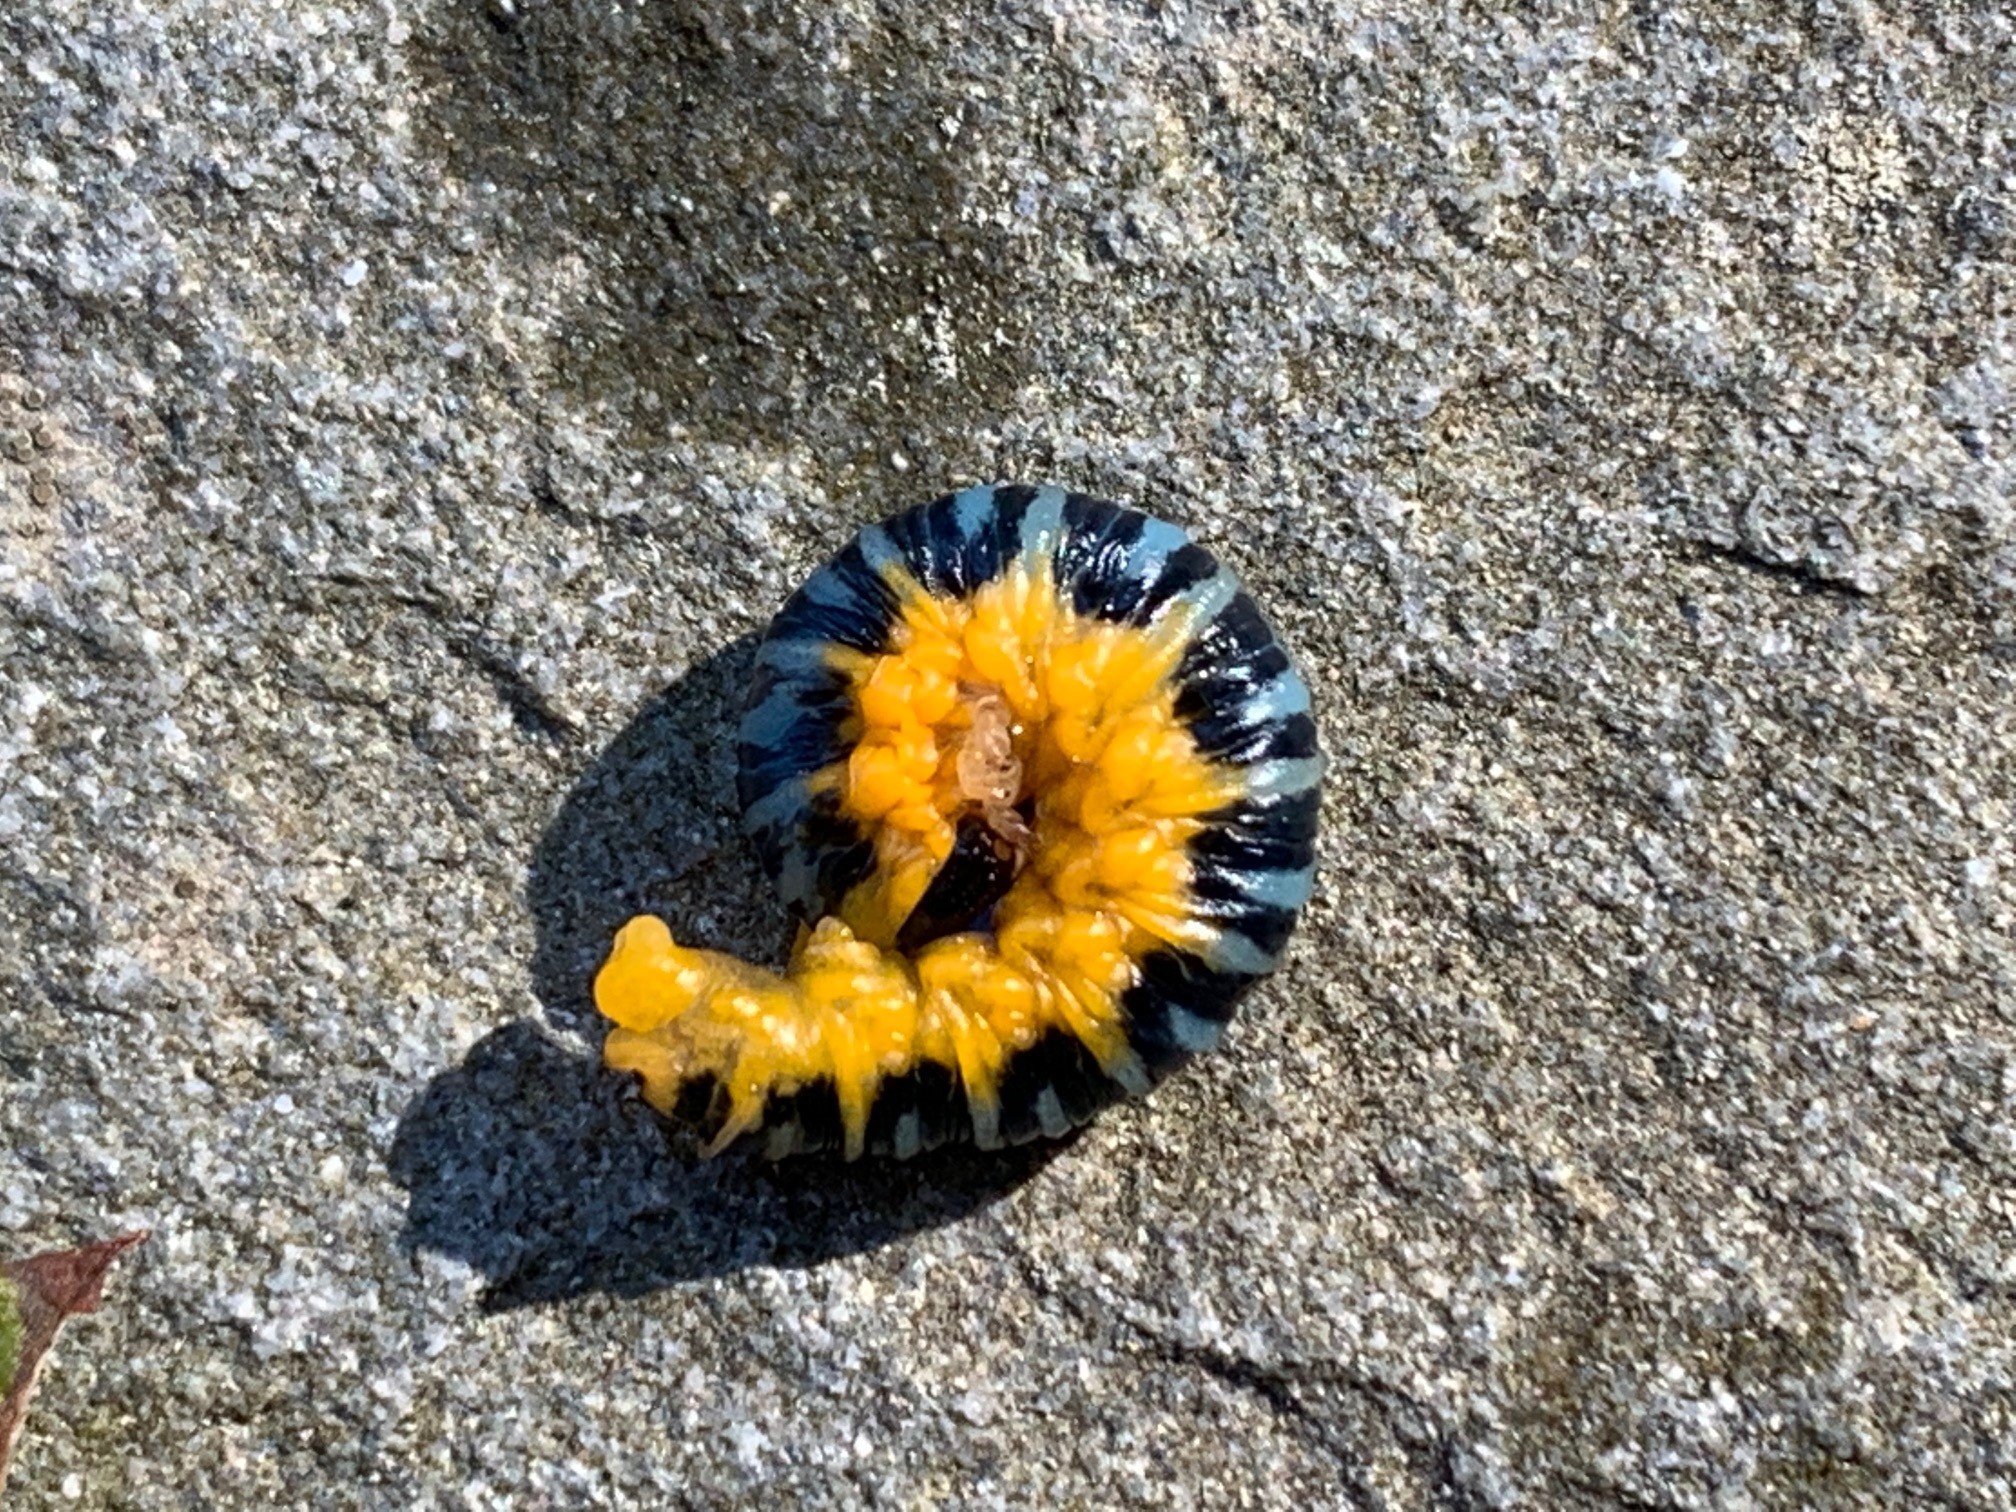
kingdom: Animalia
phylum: Arthropoda
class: Insecta
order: Hymenoptera
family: Tenthredinidae
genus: Macremphytus
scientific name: Macremphytus
